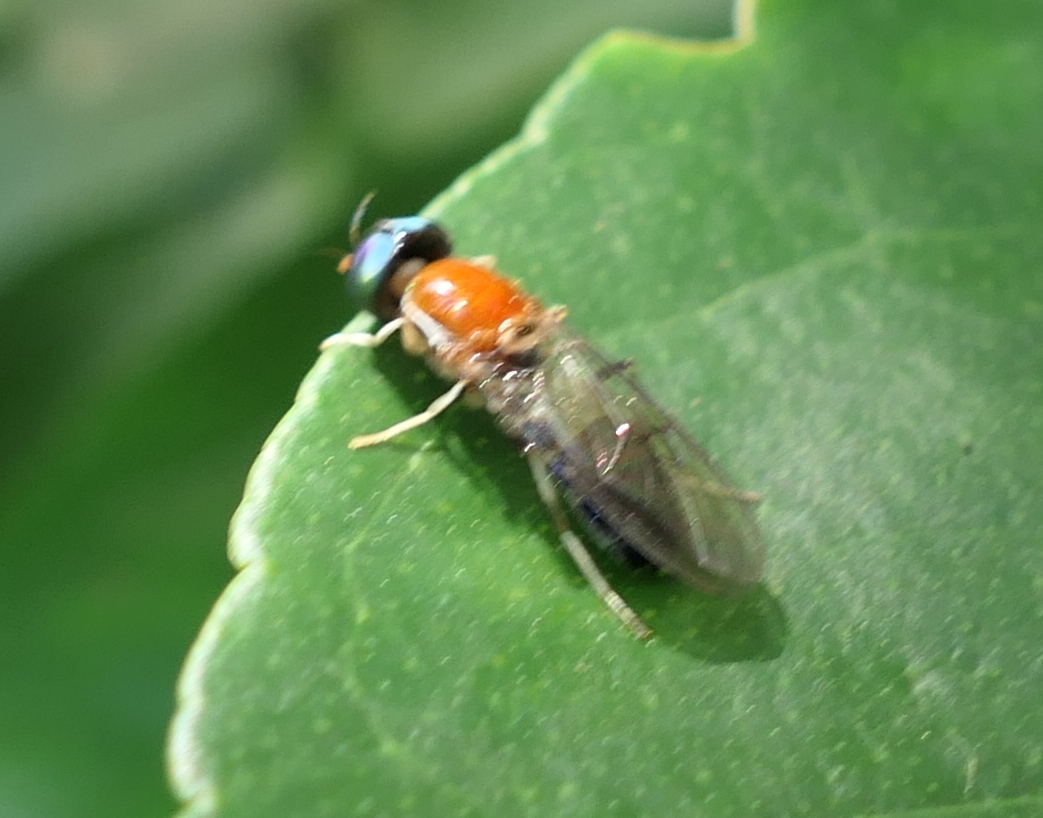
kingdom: Animalia
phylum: Arthropoda
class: Insecta
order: Diptera
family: Stratiomyidae
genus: Sargus
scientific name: Sargus thoracicus
